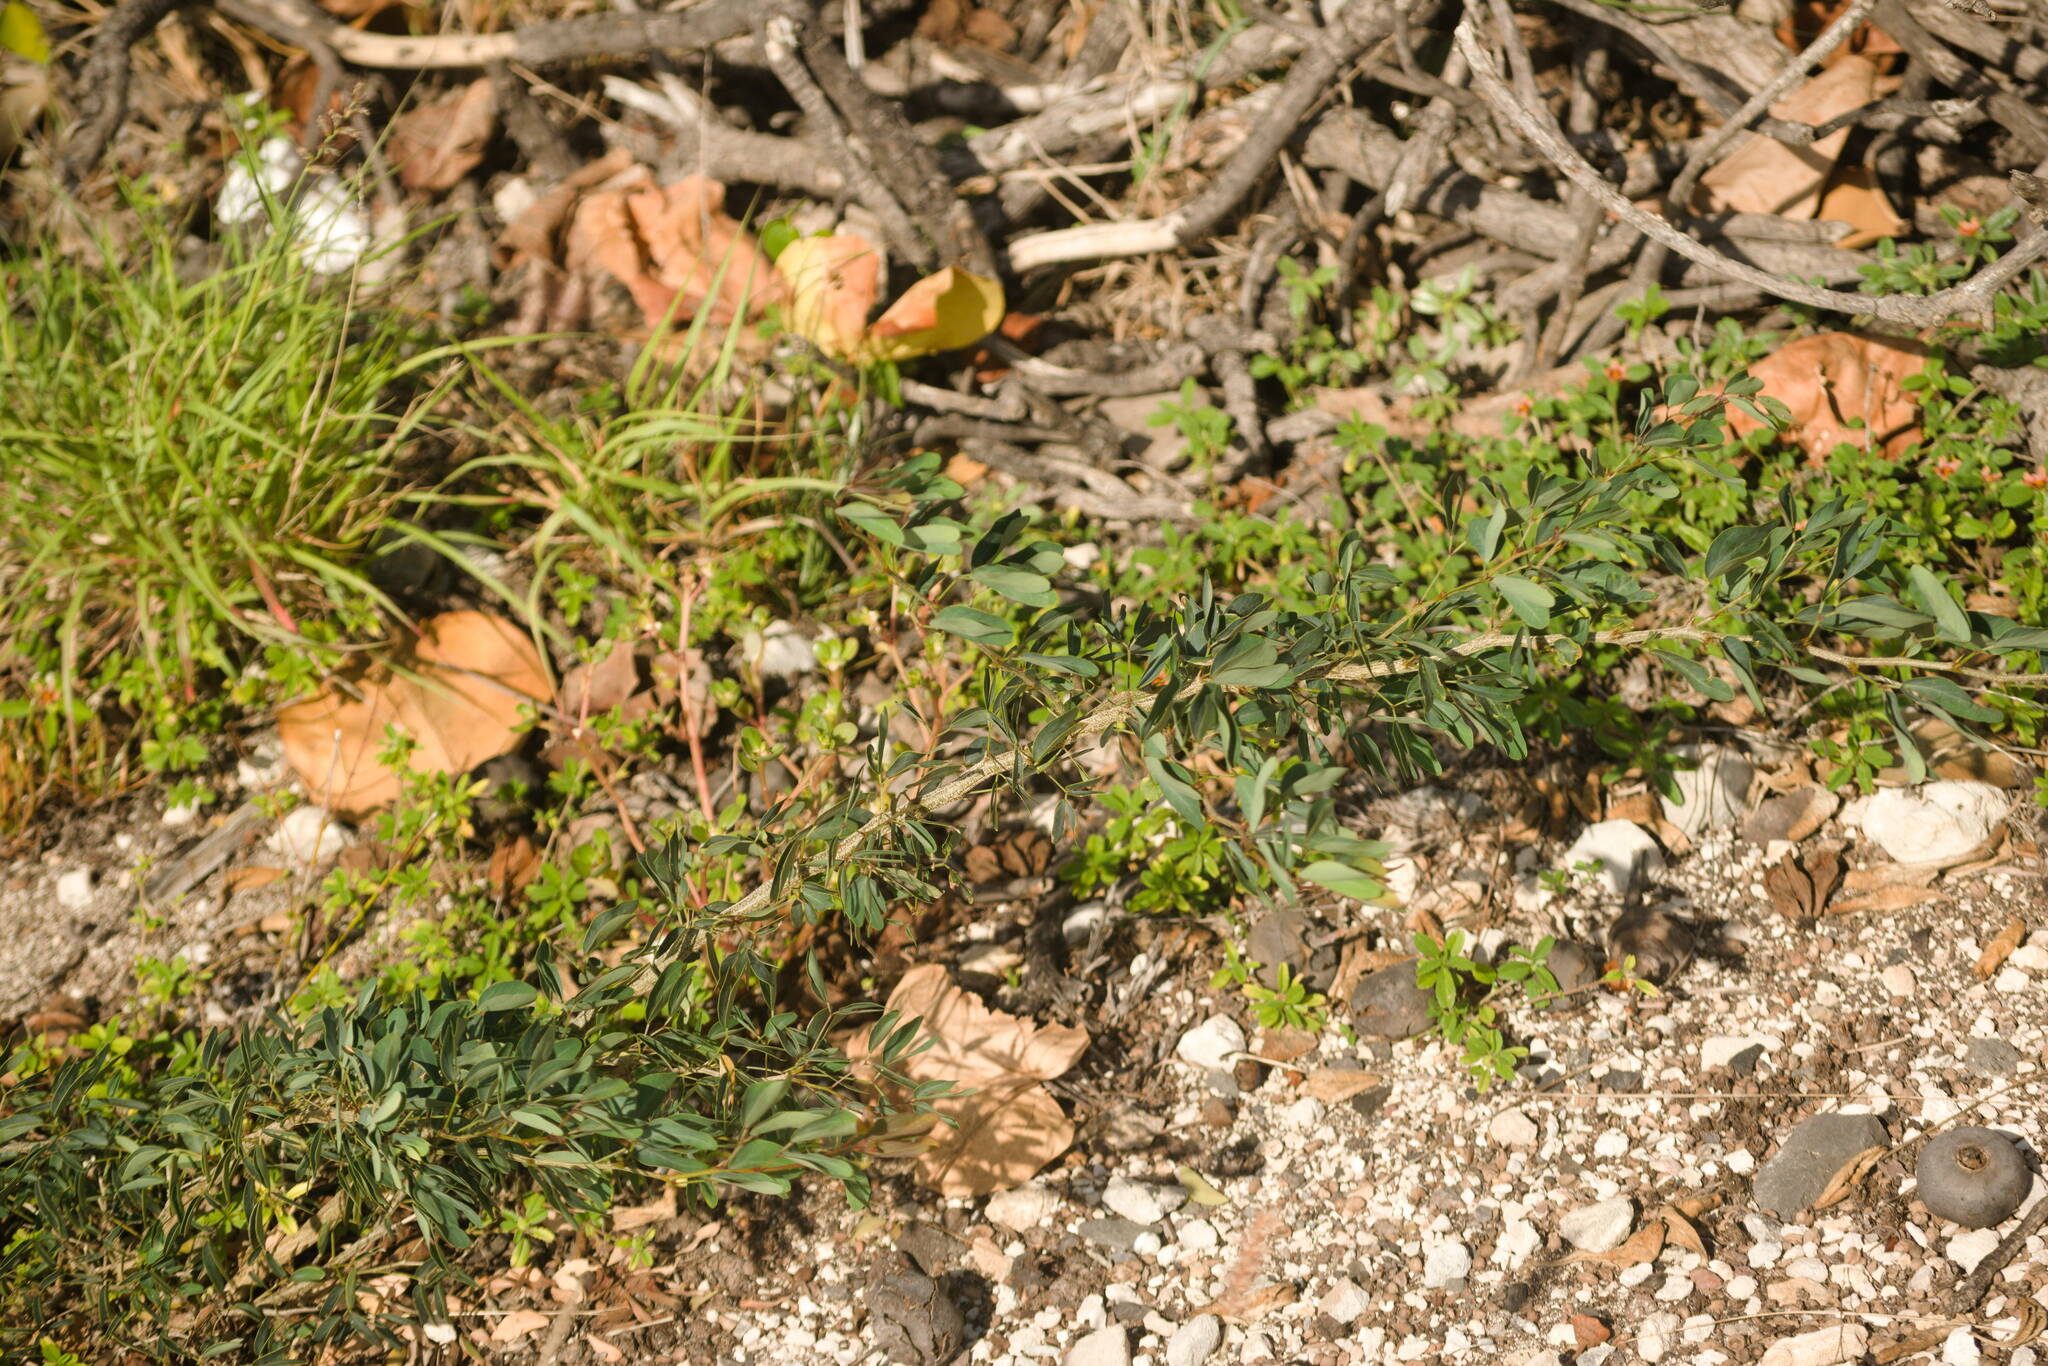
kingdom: Plantae
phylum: Tracheophyta
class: Magnoliopsida
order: Fabales
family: Fabaceae
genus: Pithecellobium
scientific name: Pithecellobium dulce
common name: Monkeypod
